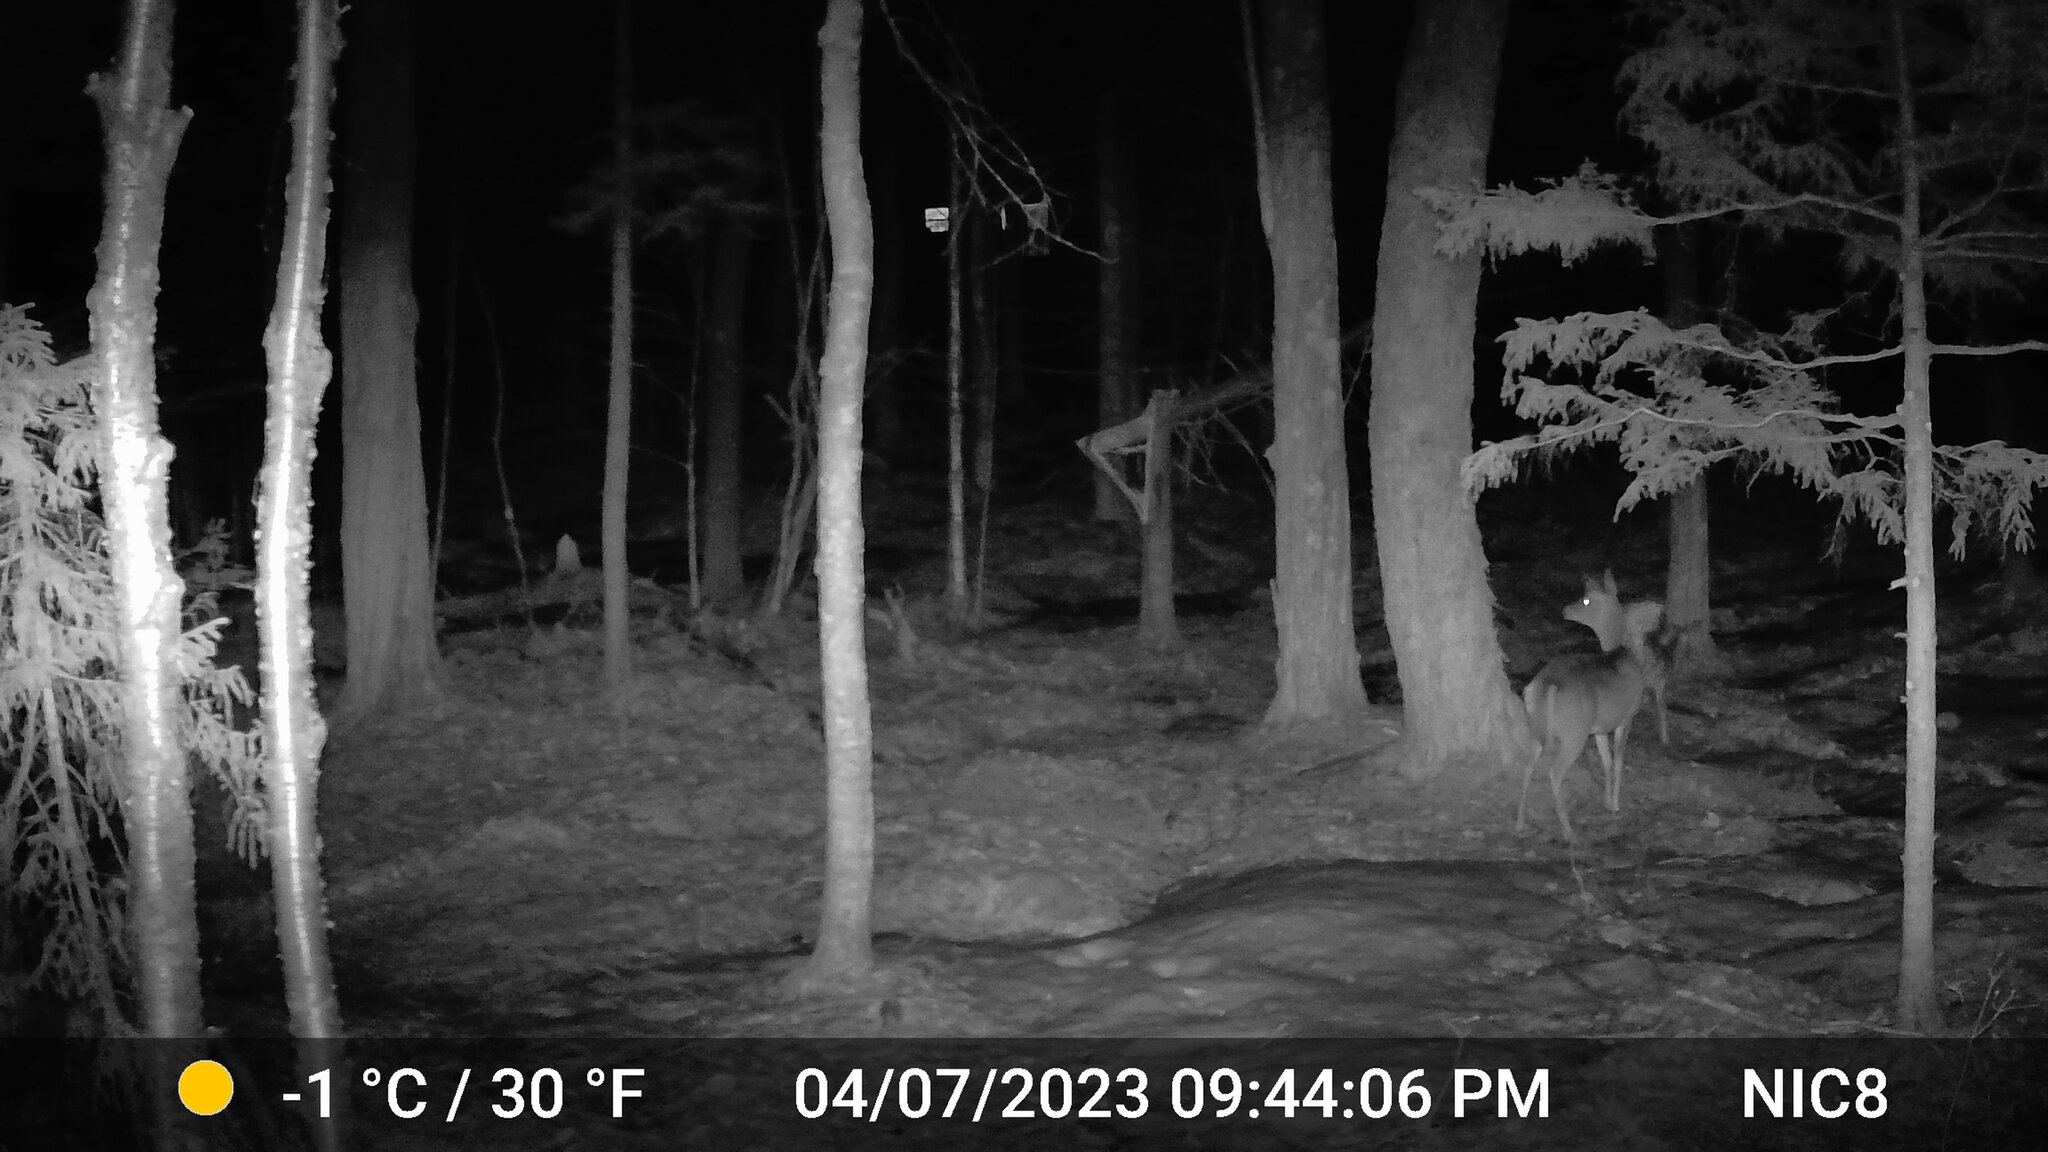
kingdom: Animalia
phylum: Chordata
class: Mammalia
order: Artiodactyla
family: Cervidae
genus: Odocoileus
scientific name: Odocoileus virginianus
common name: White-tailed deer
